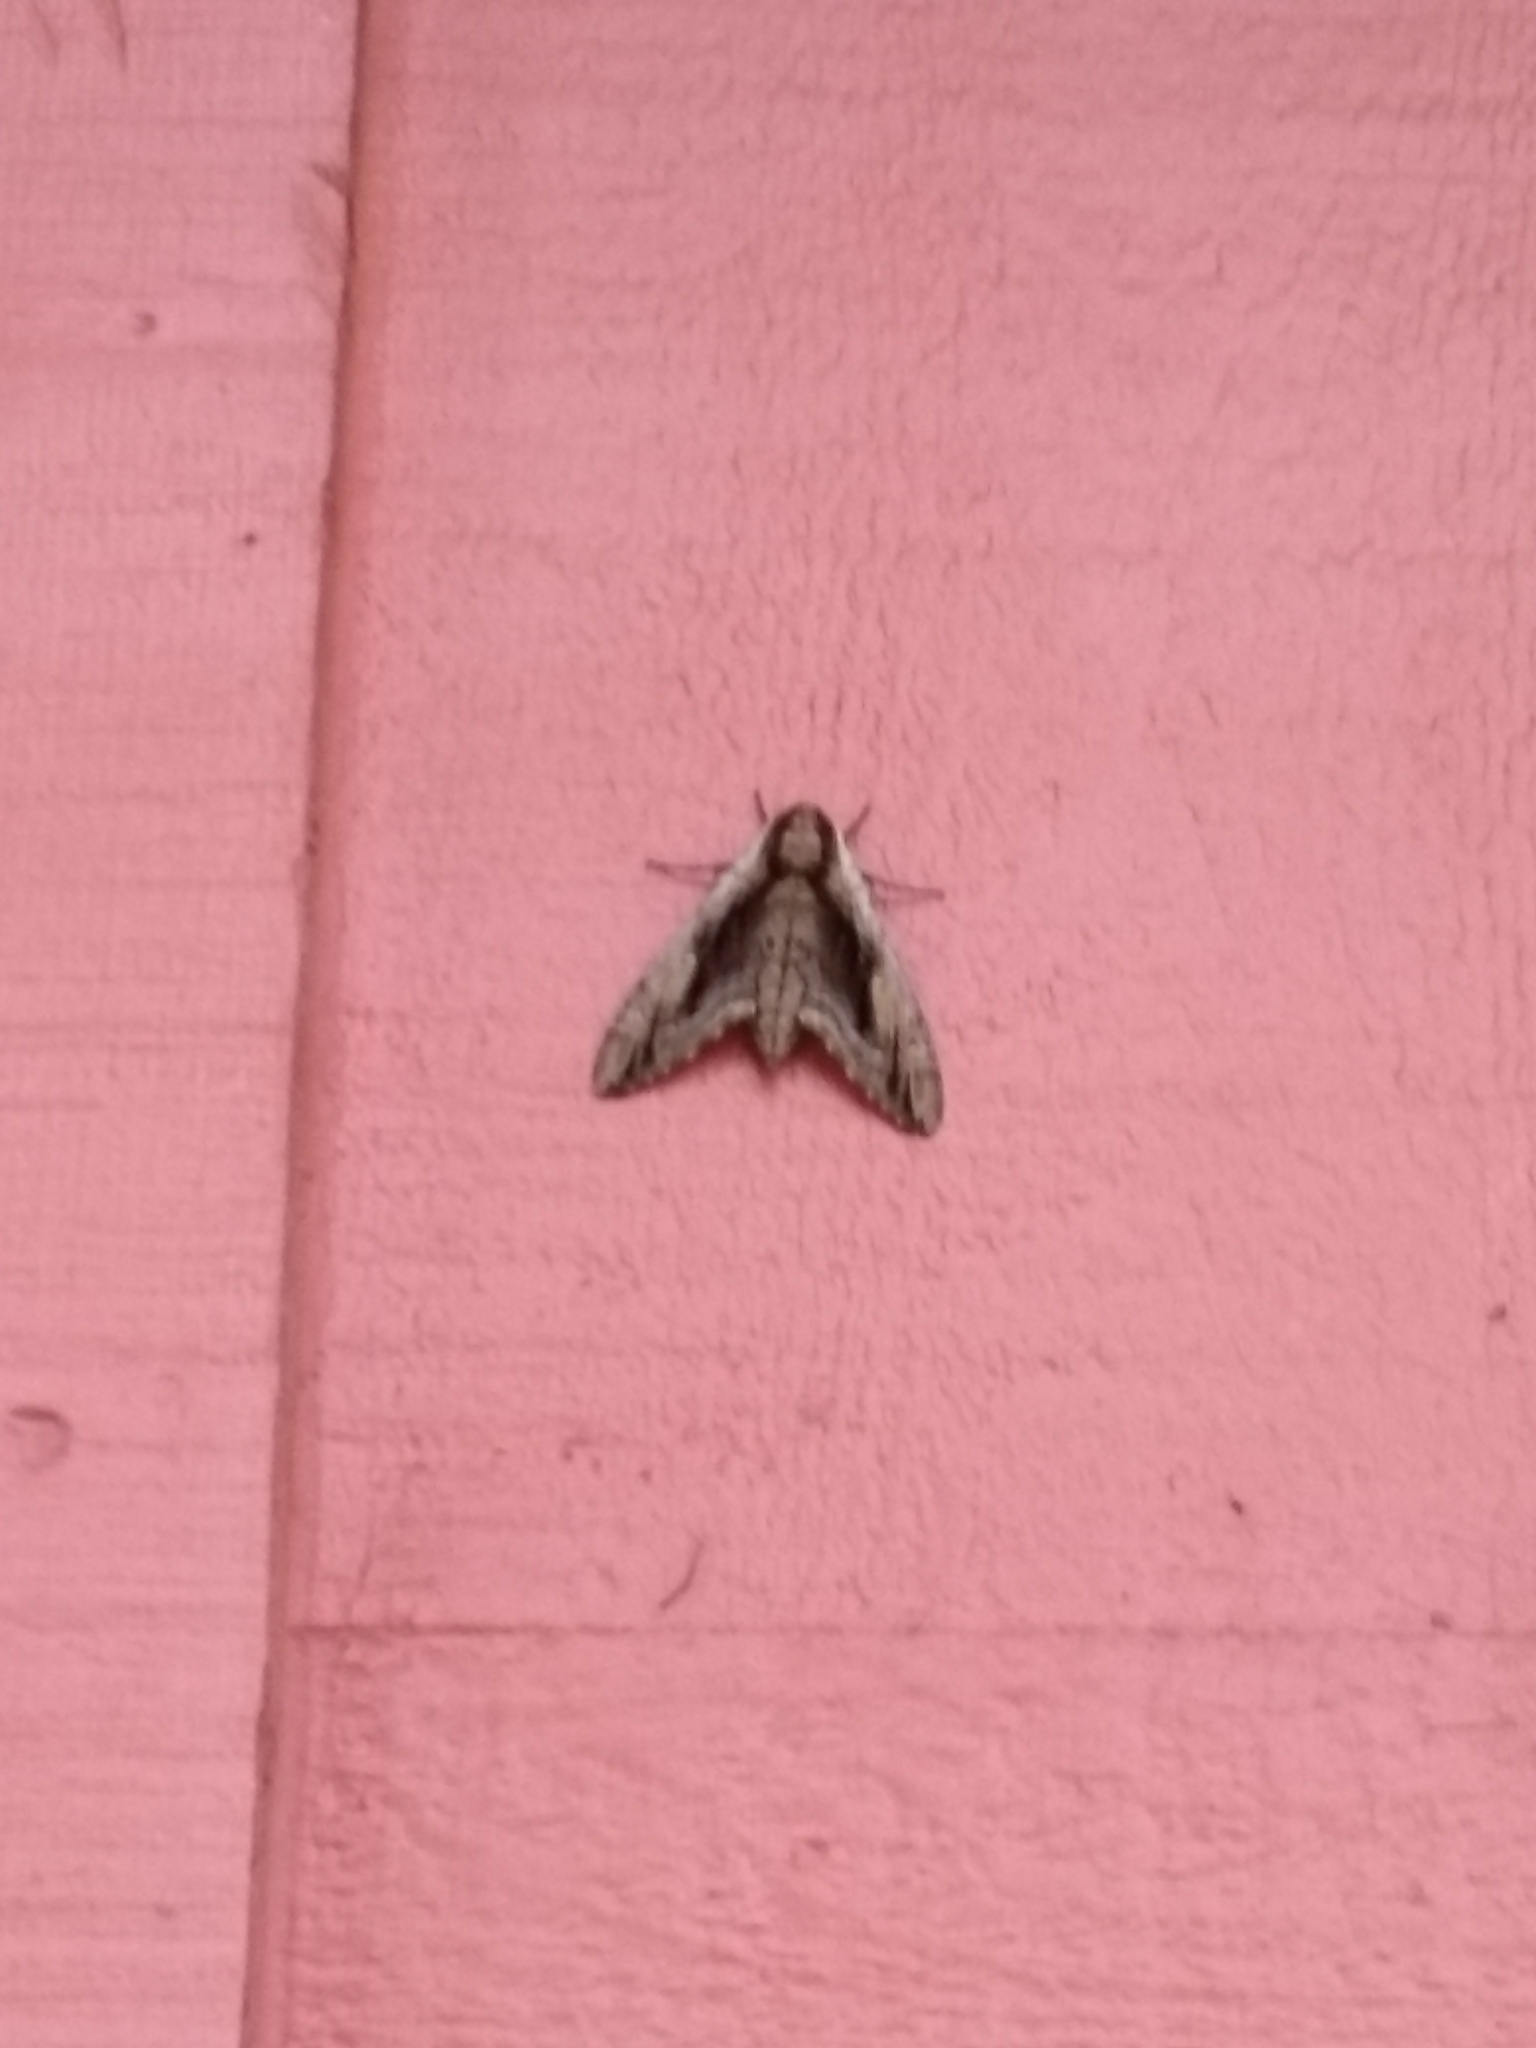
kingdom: Animalia
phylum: Arthropoda
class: Insecta
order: Lepidoptera
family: Sphingidae
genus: Ceratomia
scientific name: Ceratomia amyntor
